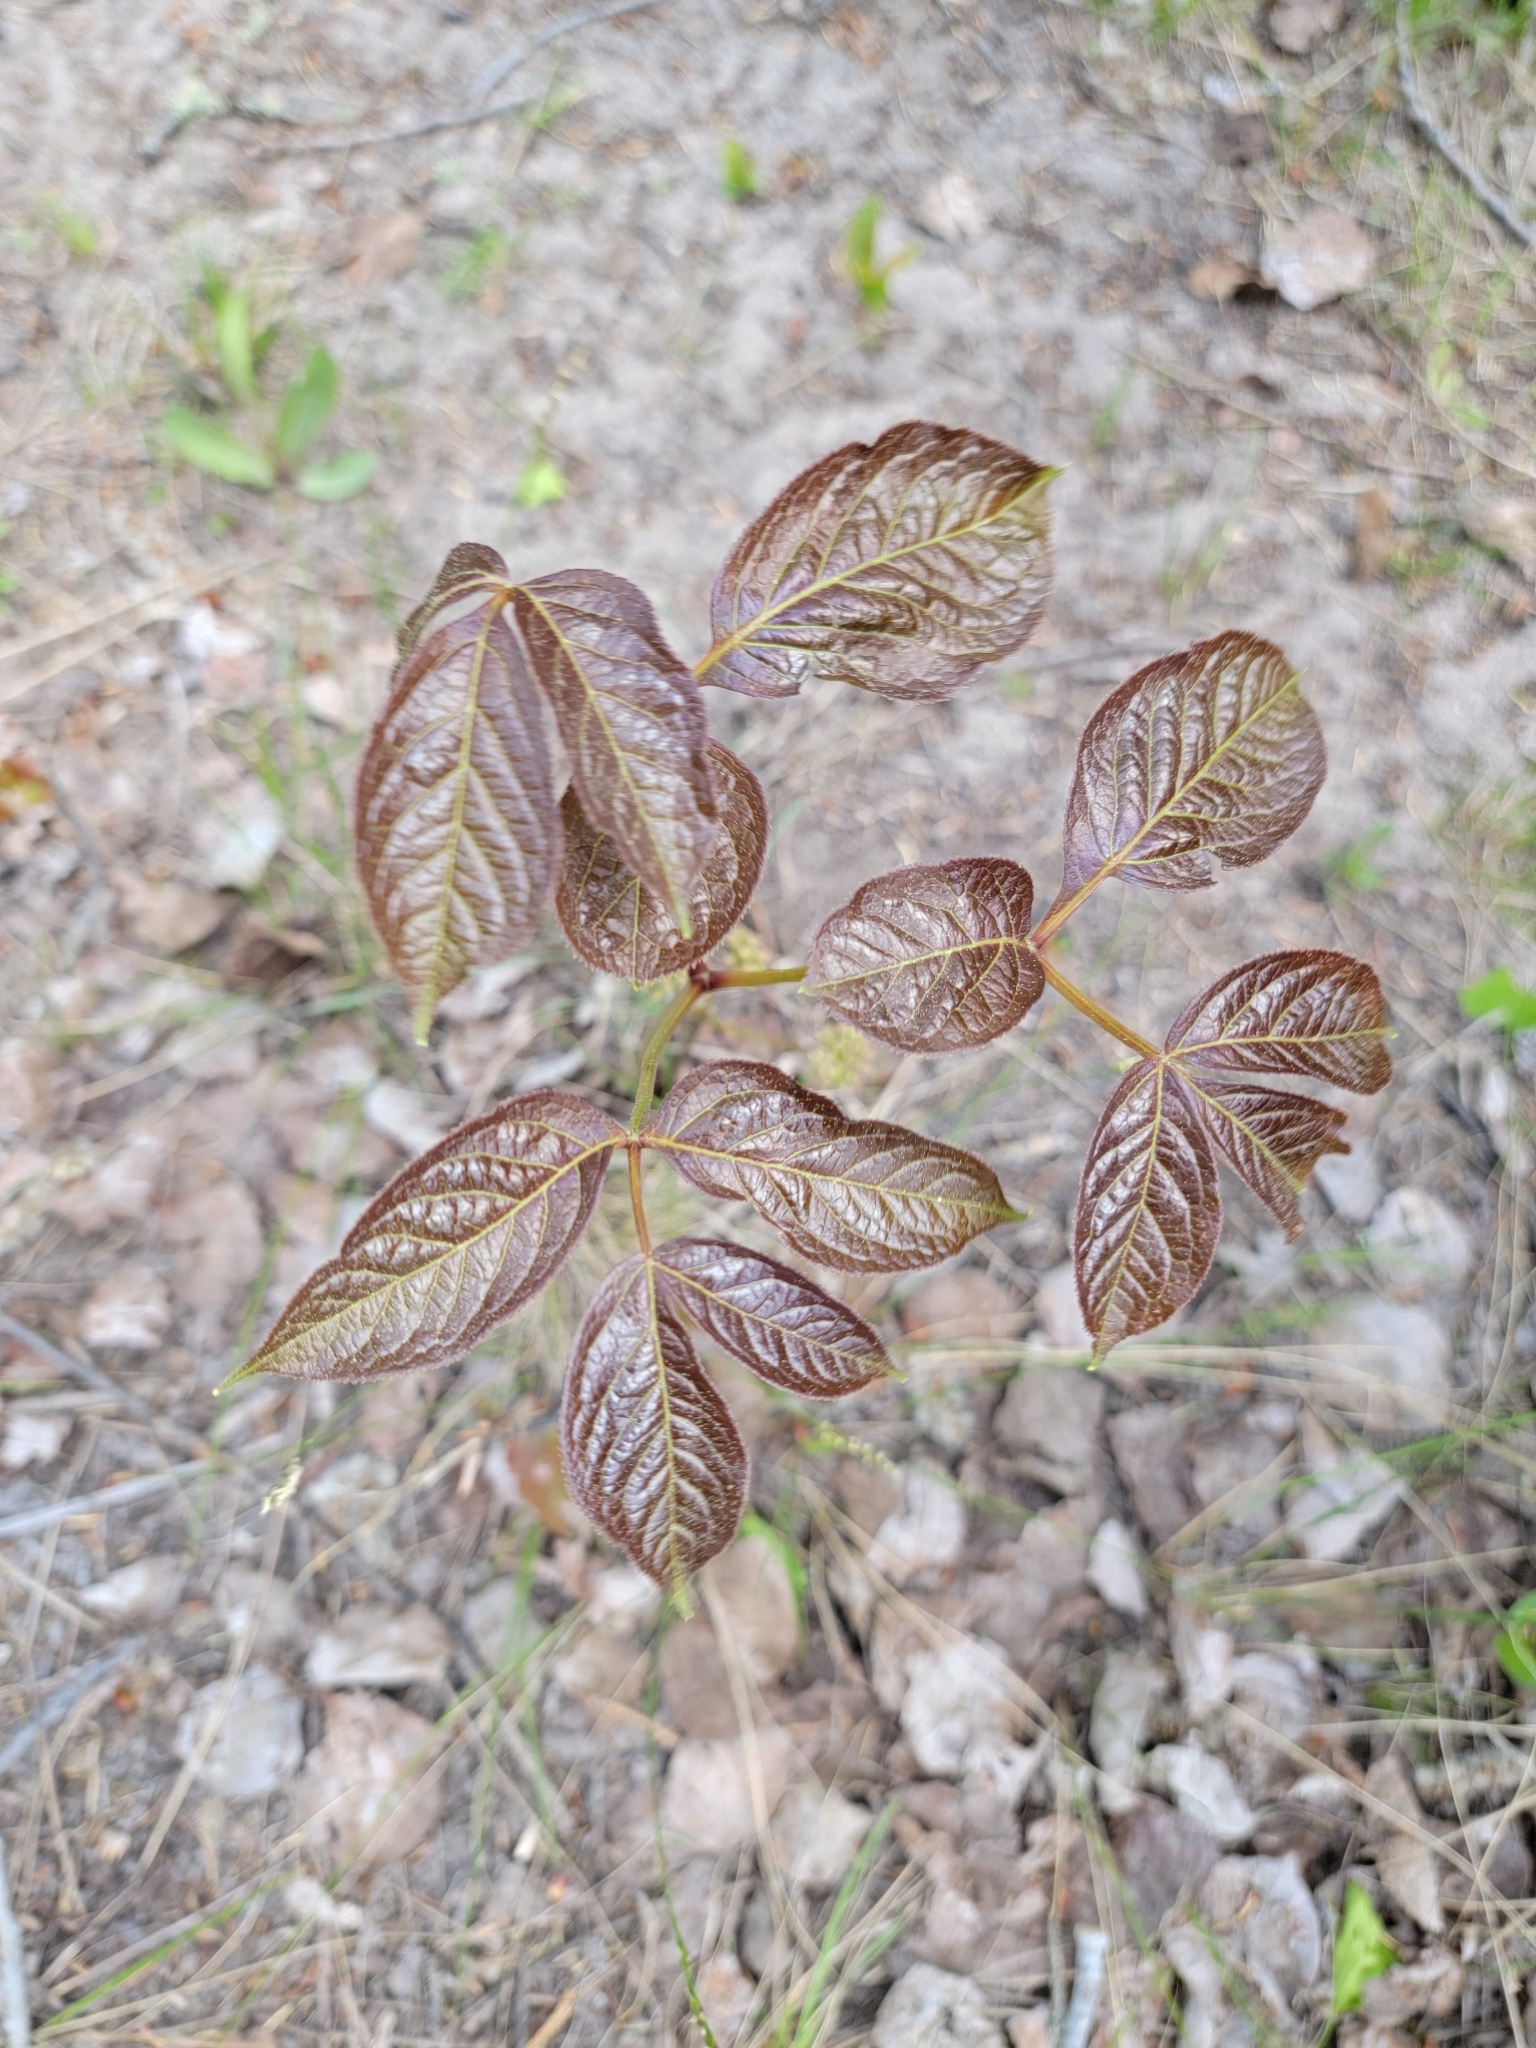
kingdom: Plantae
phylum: Tracheophyta
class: Magnoliopsida
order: Apiales
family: Araliaceae
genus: Aralia
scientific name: Aralia nudicaulis
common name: Wild sarsaparilla
